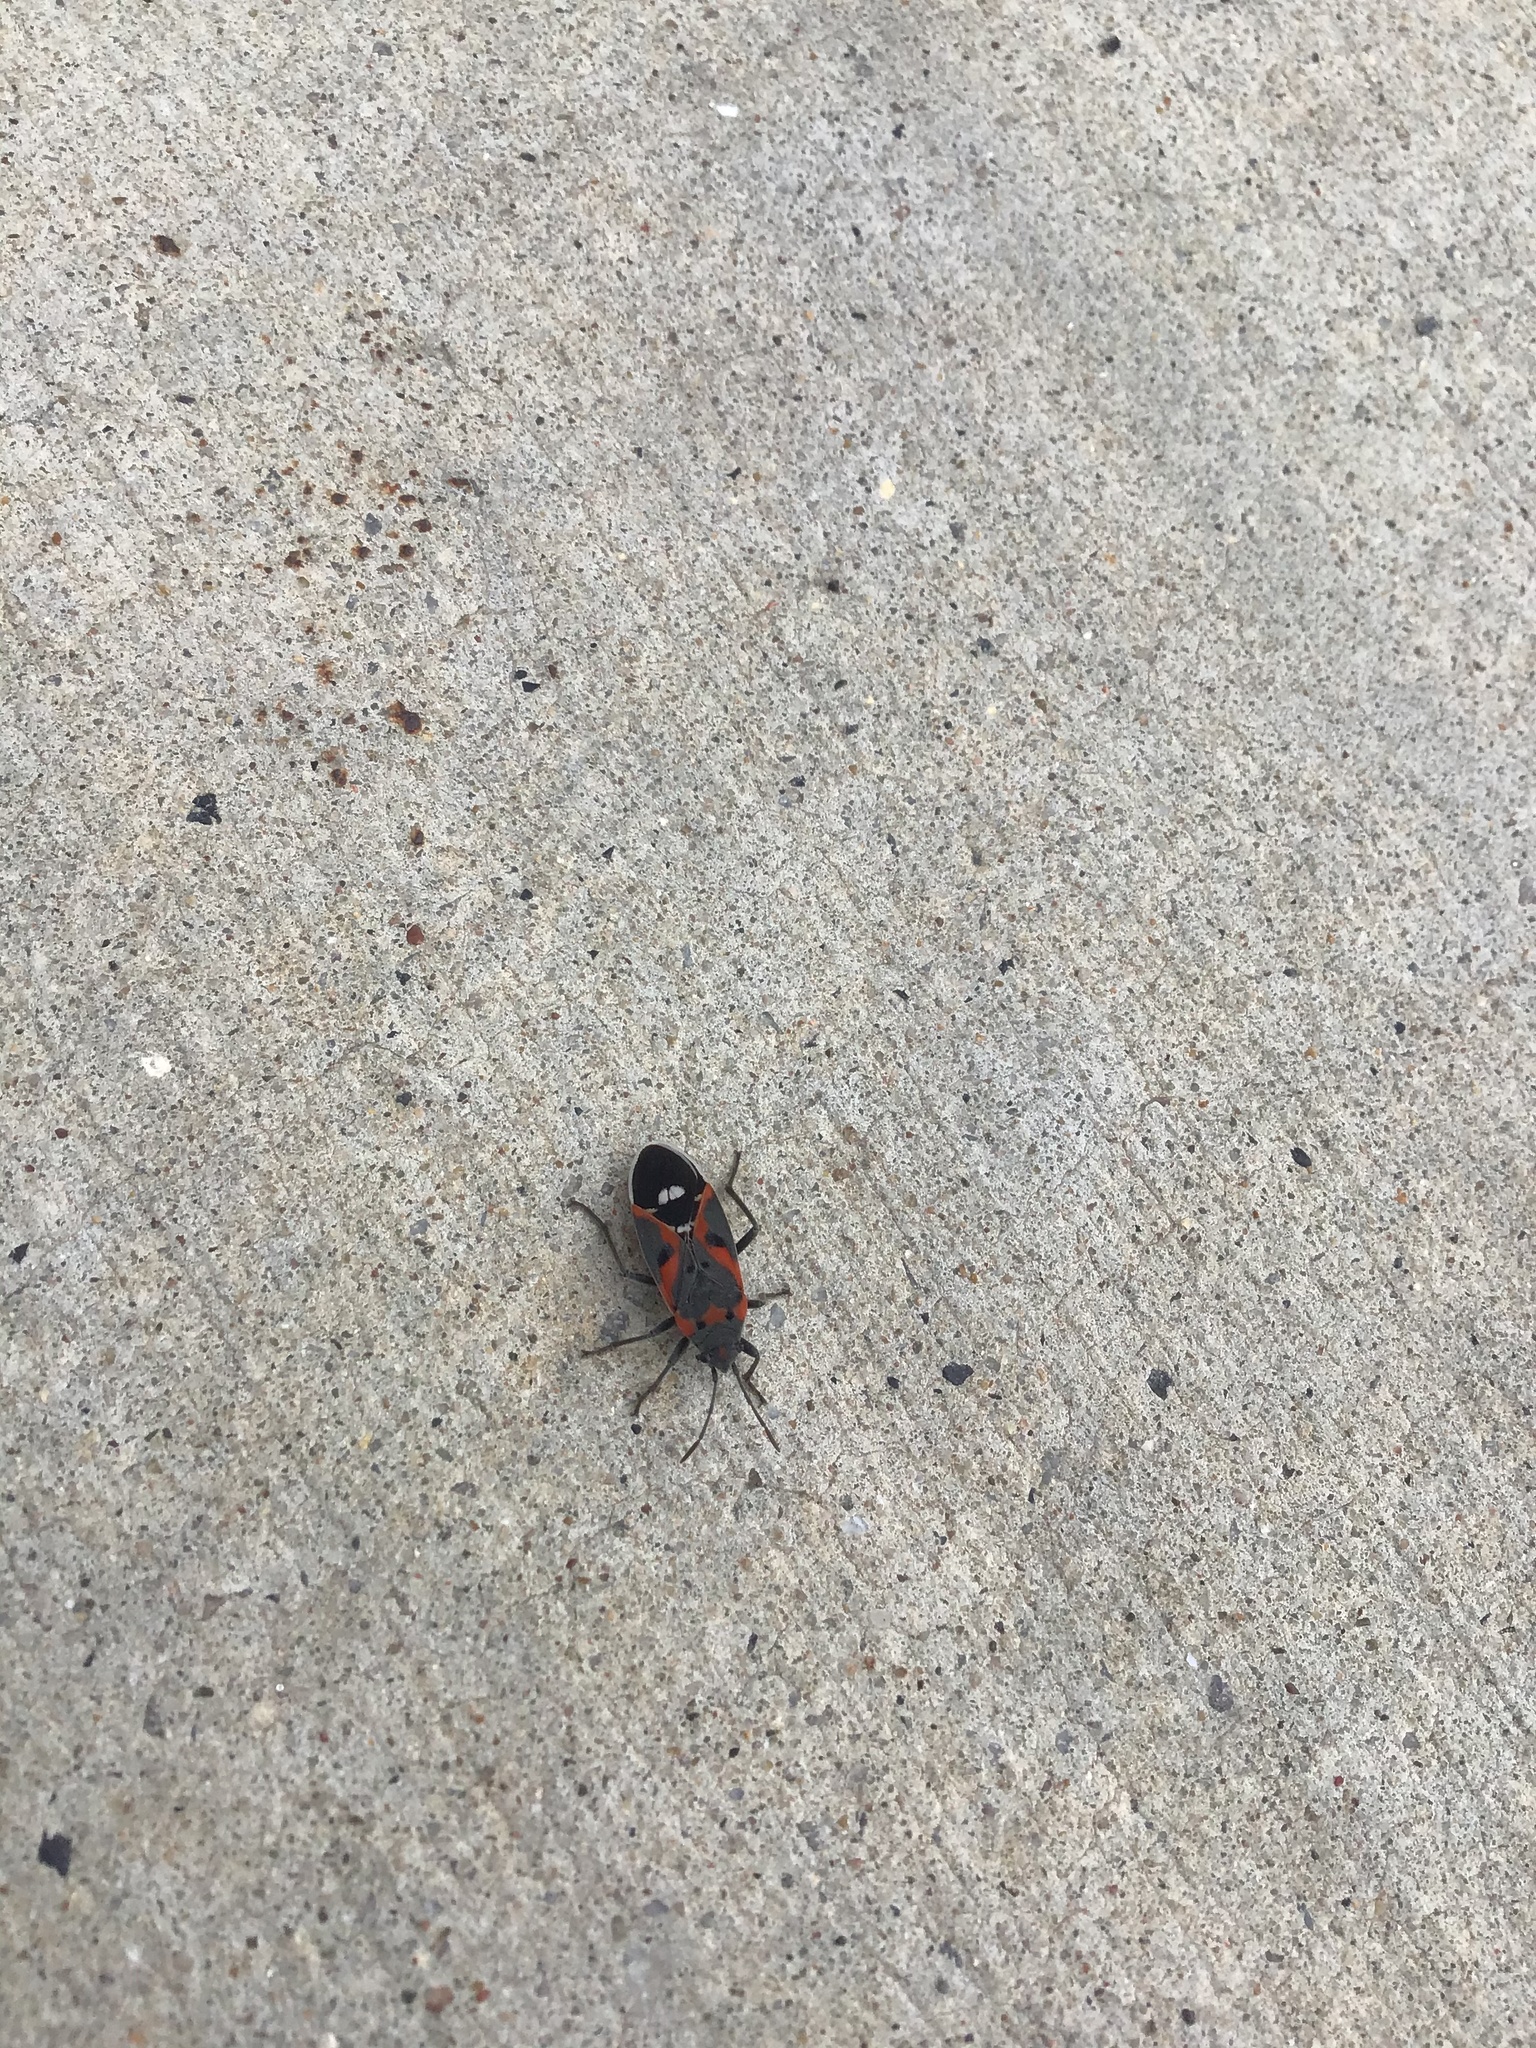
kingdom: Animalia
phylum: Arthropoda
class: Insecta
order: Hemiptera
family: Lygaeidae
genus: Lygaeus
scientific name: Lygaeus kalmii
